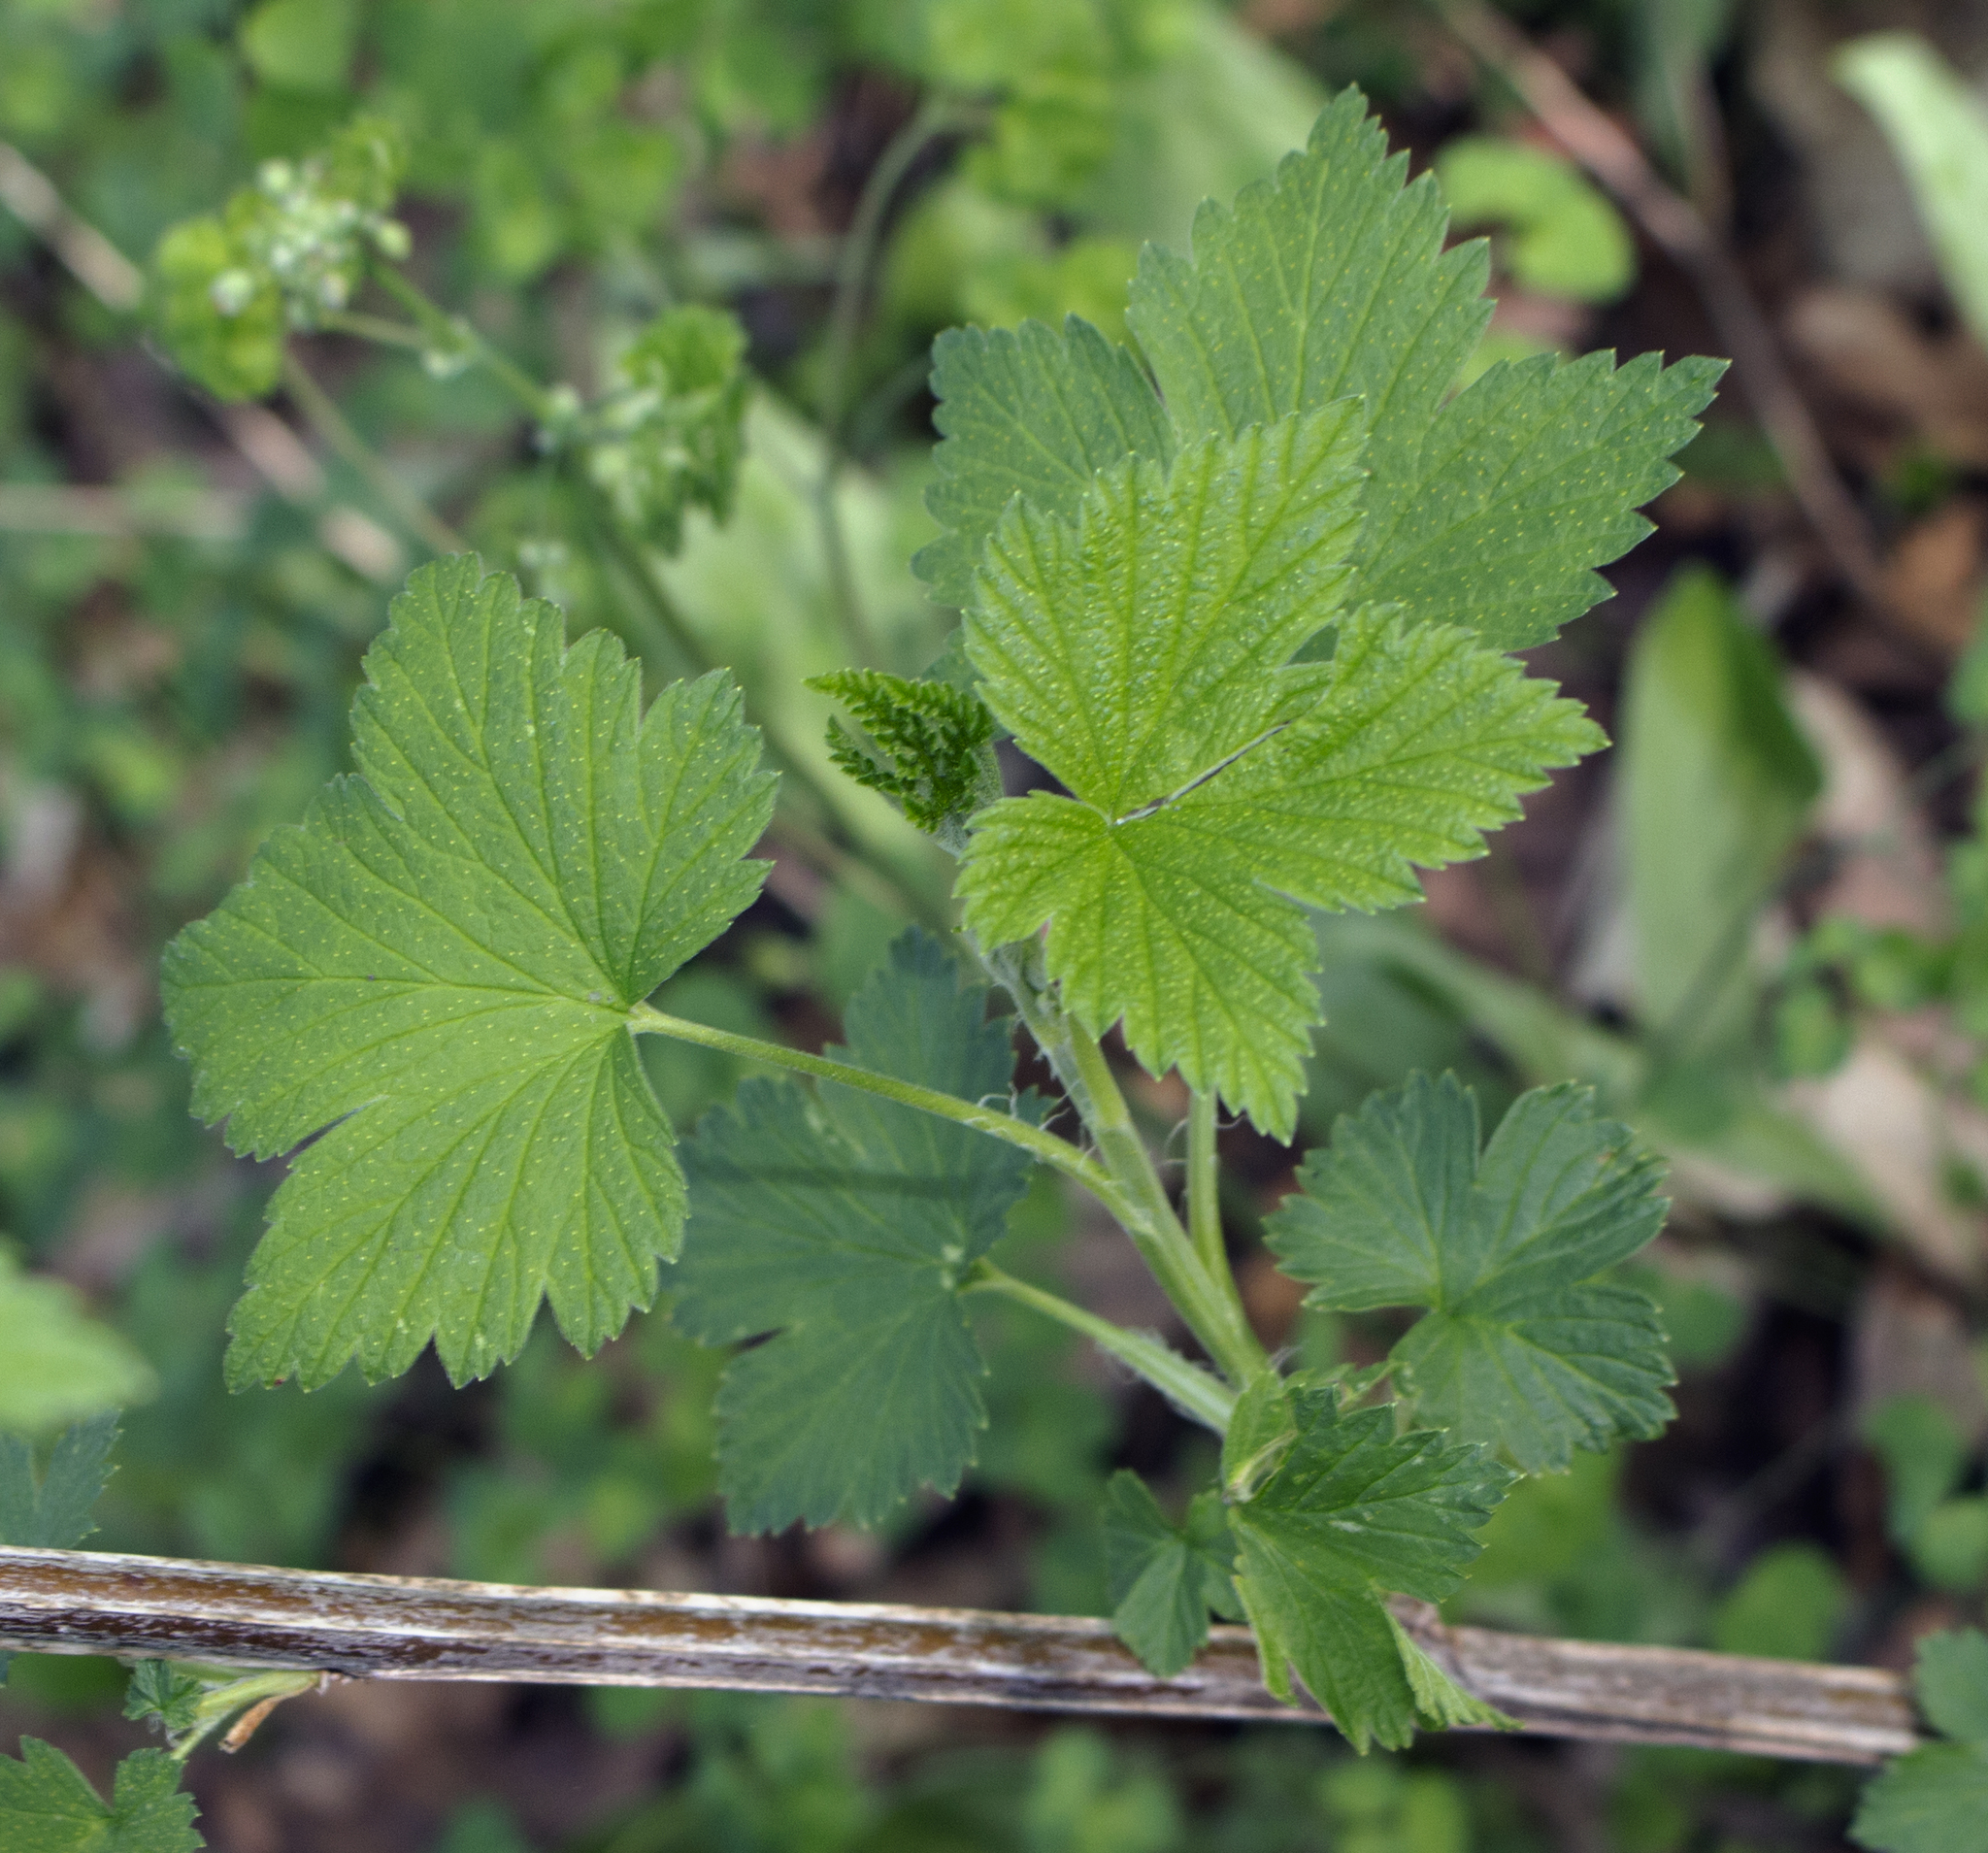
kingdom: Plantae
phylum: Tracheophyta
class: Magnoliopsida
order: Saxifragales
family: Grossulariaceae
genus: Ribes
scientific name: Ribes americanum
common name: American black currant
